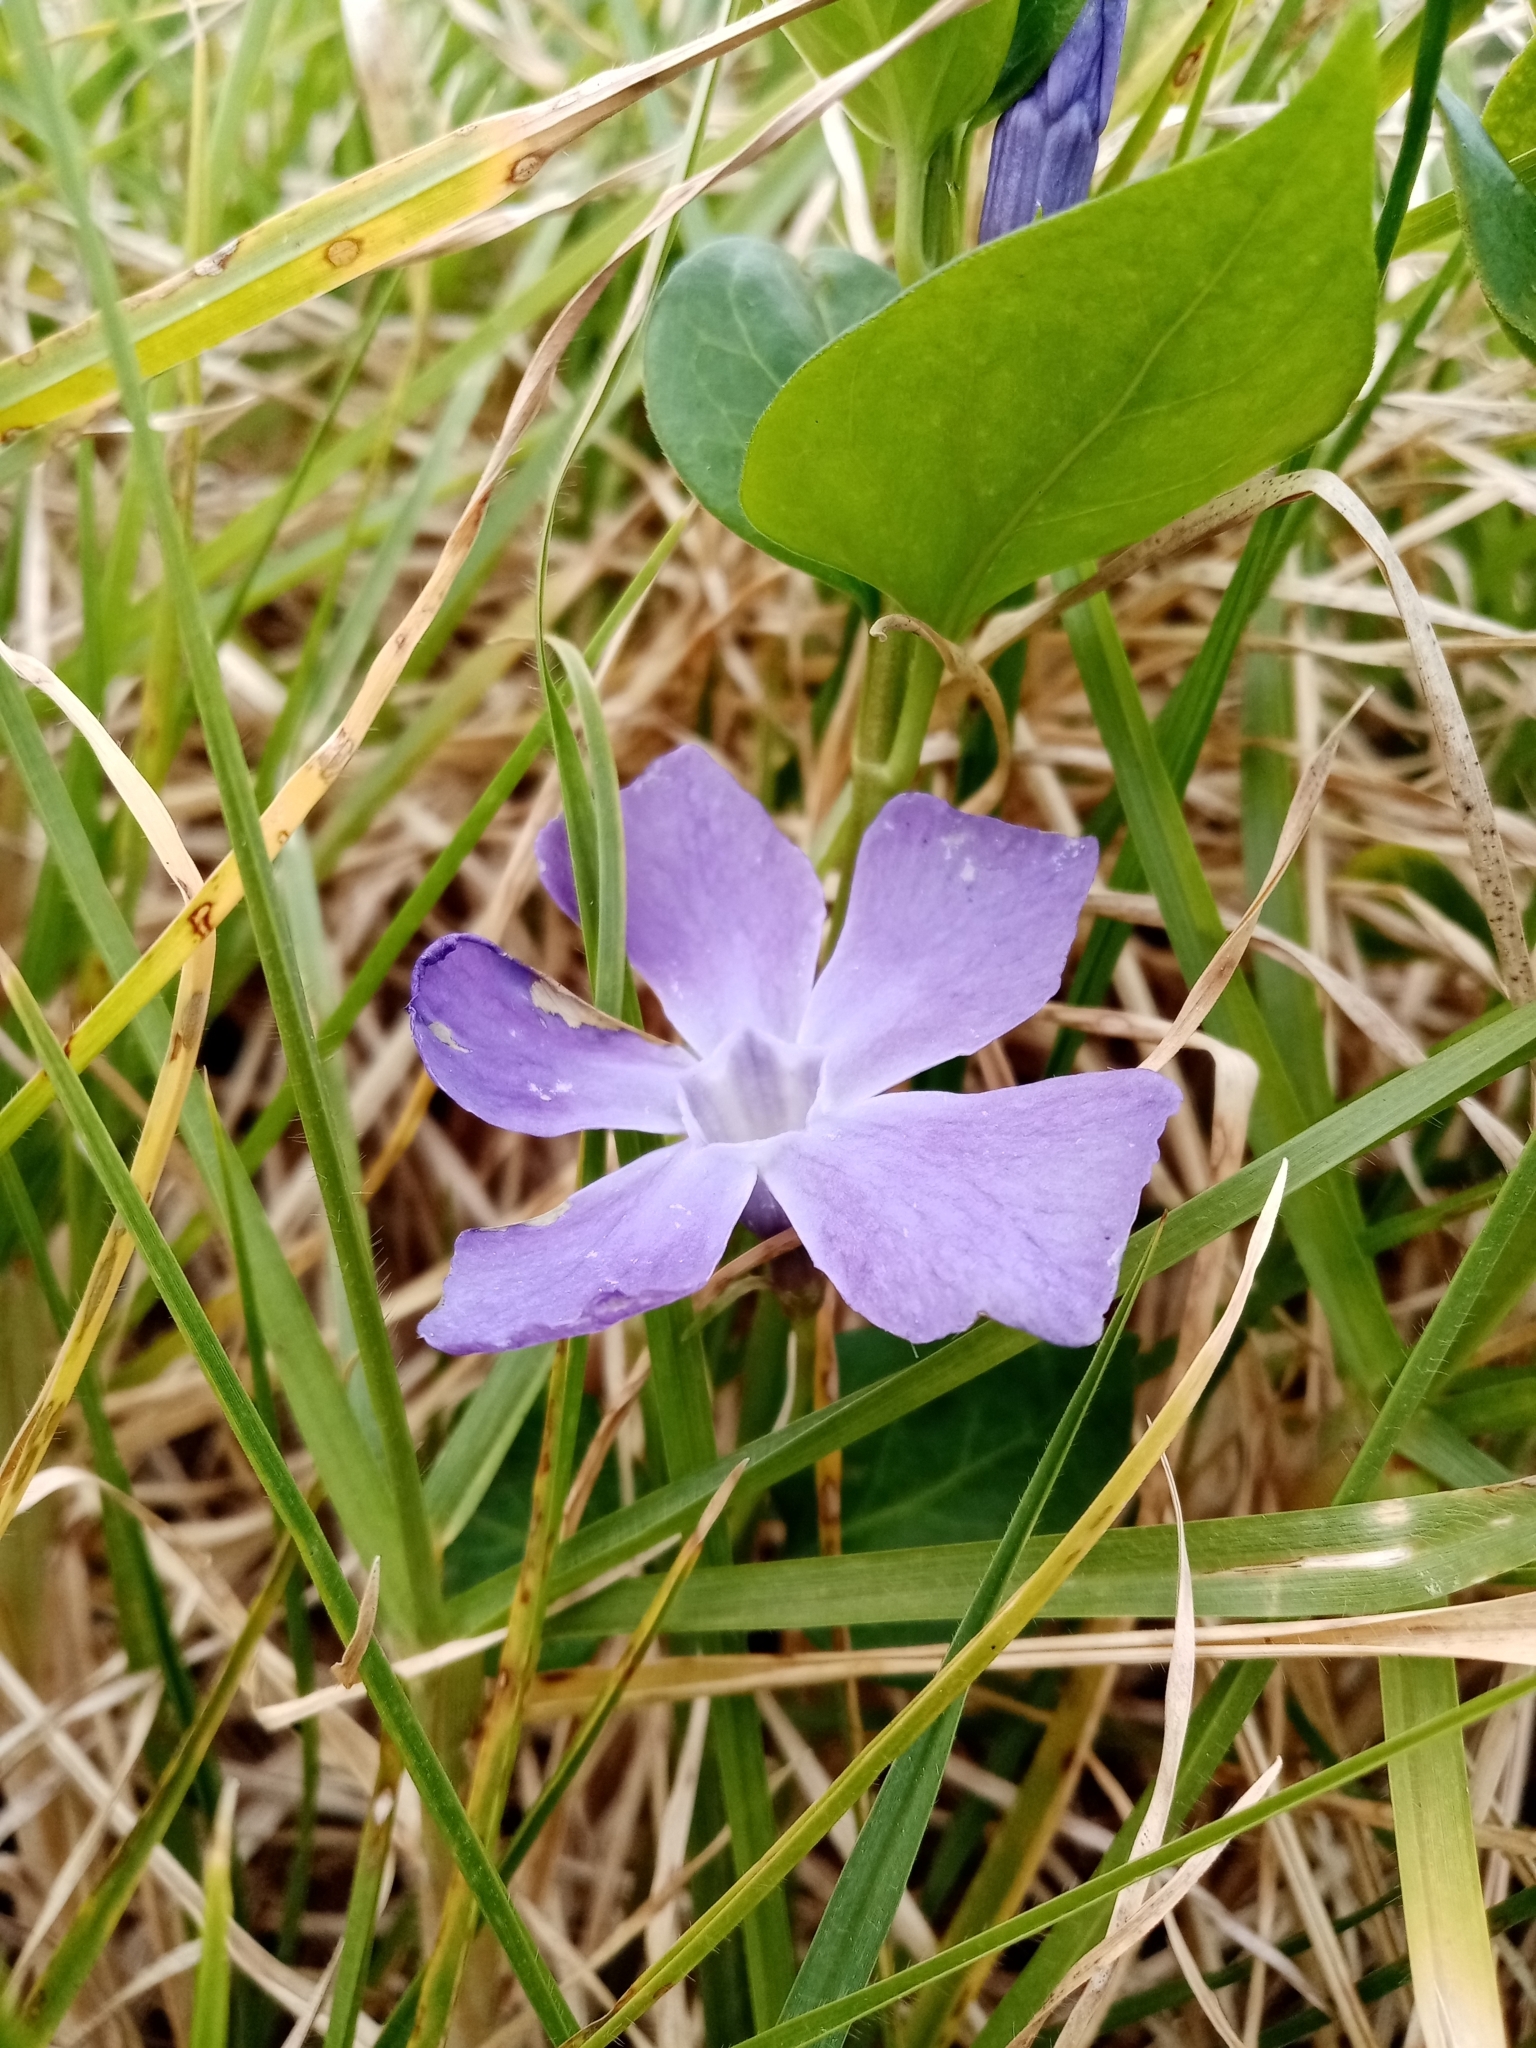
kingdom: Plantae
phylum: Tracheophyta
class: Magnoliopsida
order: Gentianales
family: Apocynaceae
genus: Vinca
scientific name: Vinca major
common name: Greater periwinkle
